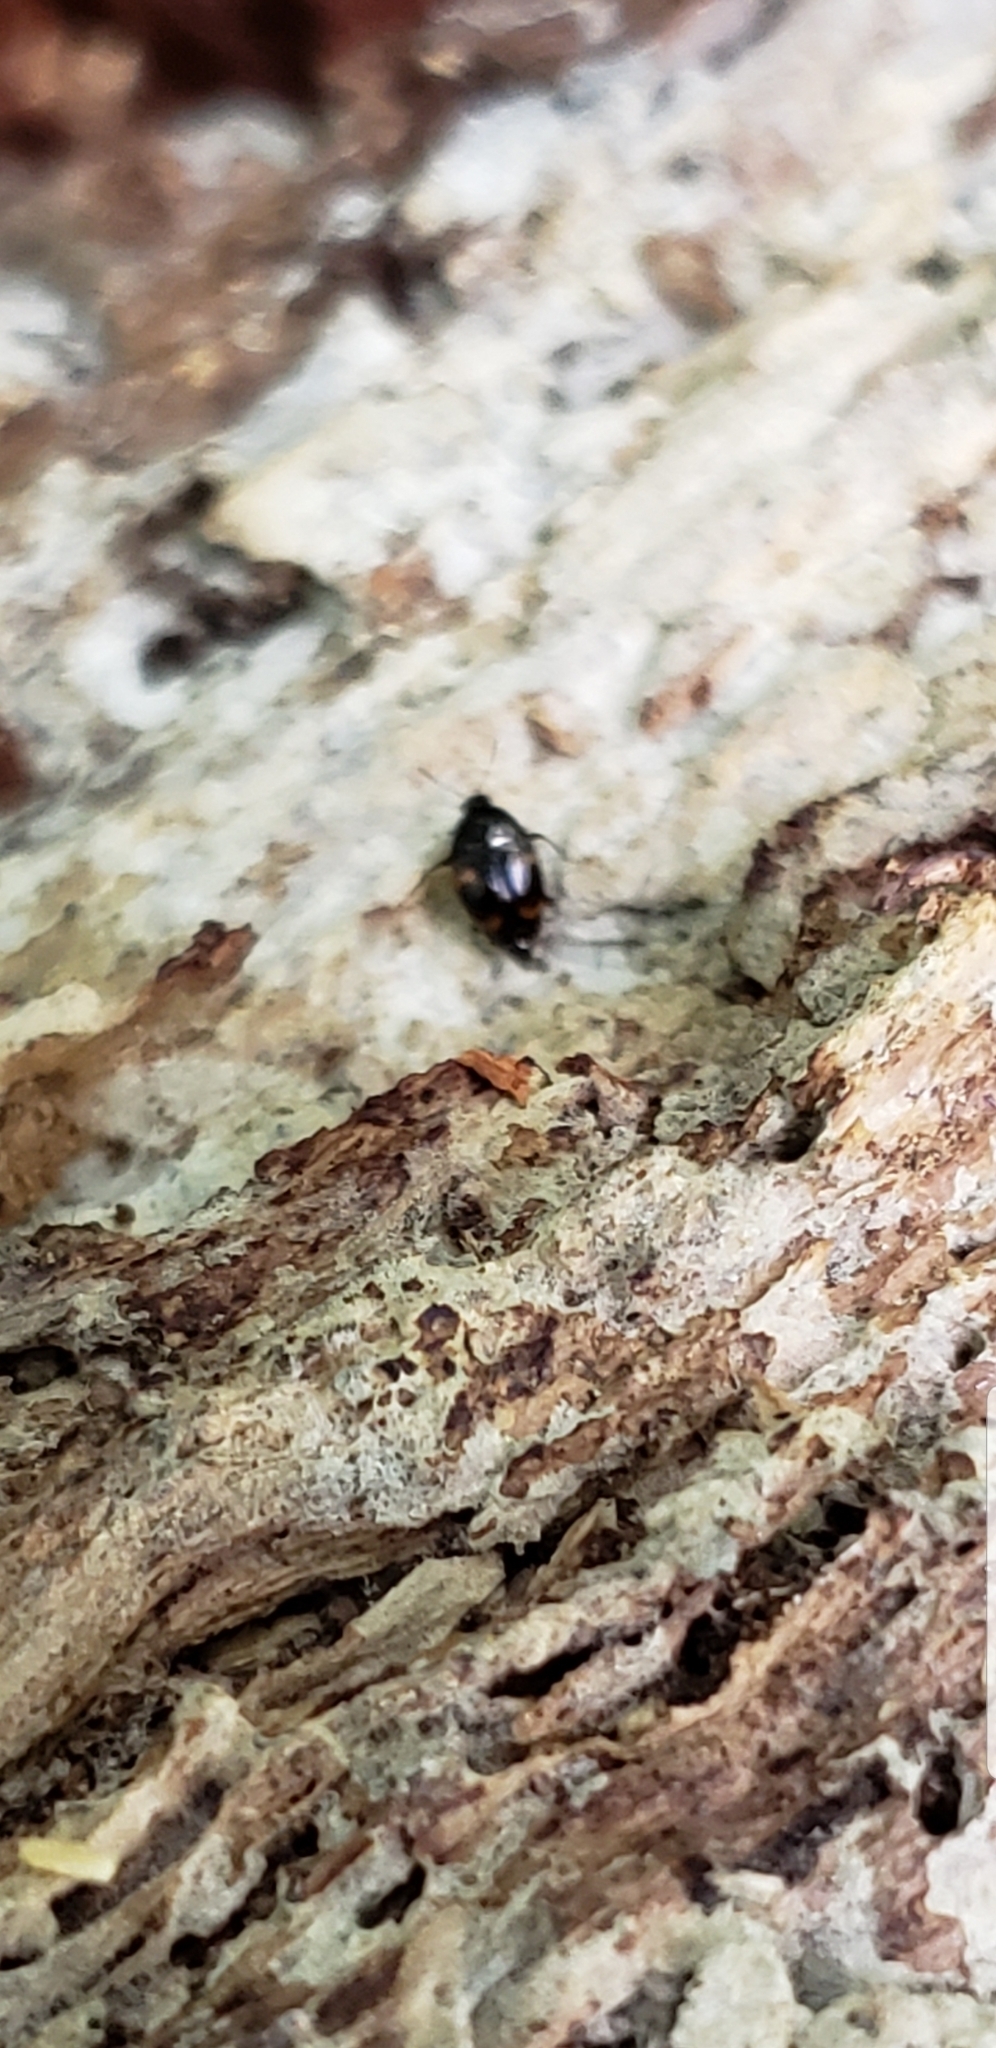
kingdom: Animalia
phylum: Arthropoda
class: Insecta
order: Coleoptera
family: Staphylinidae
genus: Scaphidium
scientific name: Scaphidium quadriguttatum
